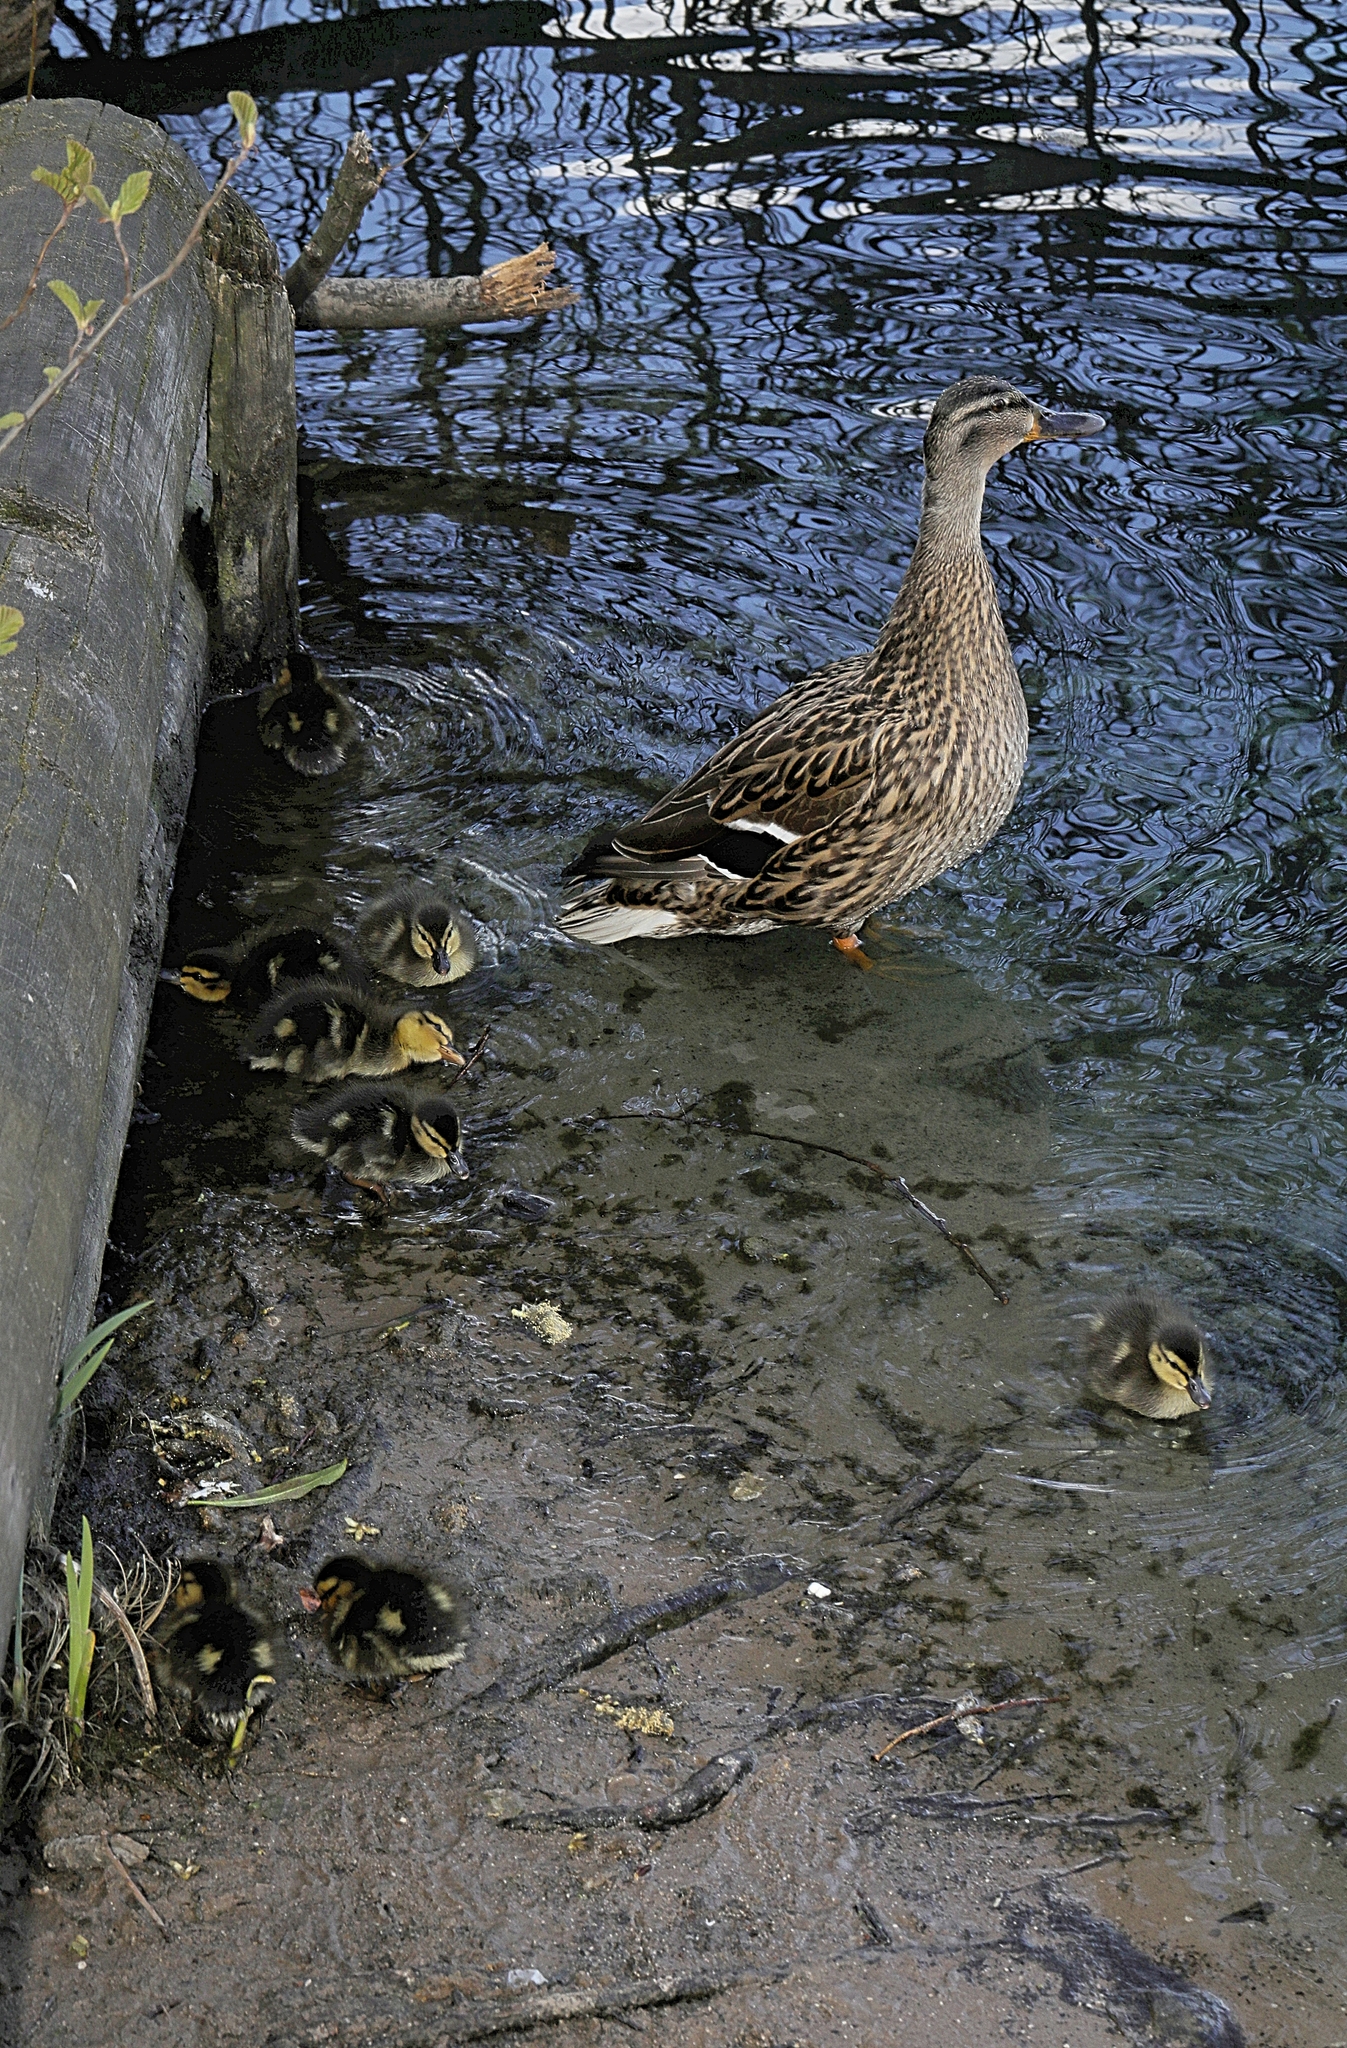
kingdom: Animalia
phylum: Chordata
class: Aves
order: Anseriformes
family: Anatidae
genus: Anas
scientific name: Anas platyrhynchos
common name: Mallard
